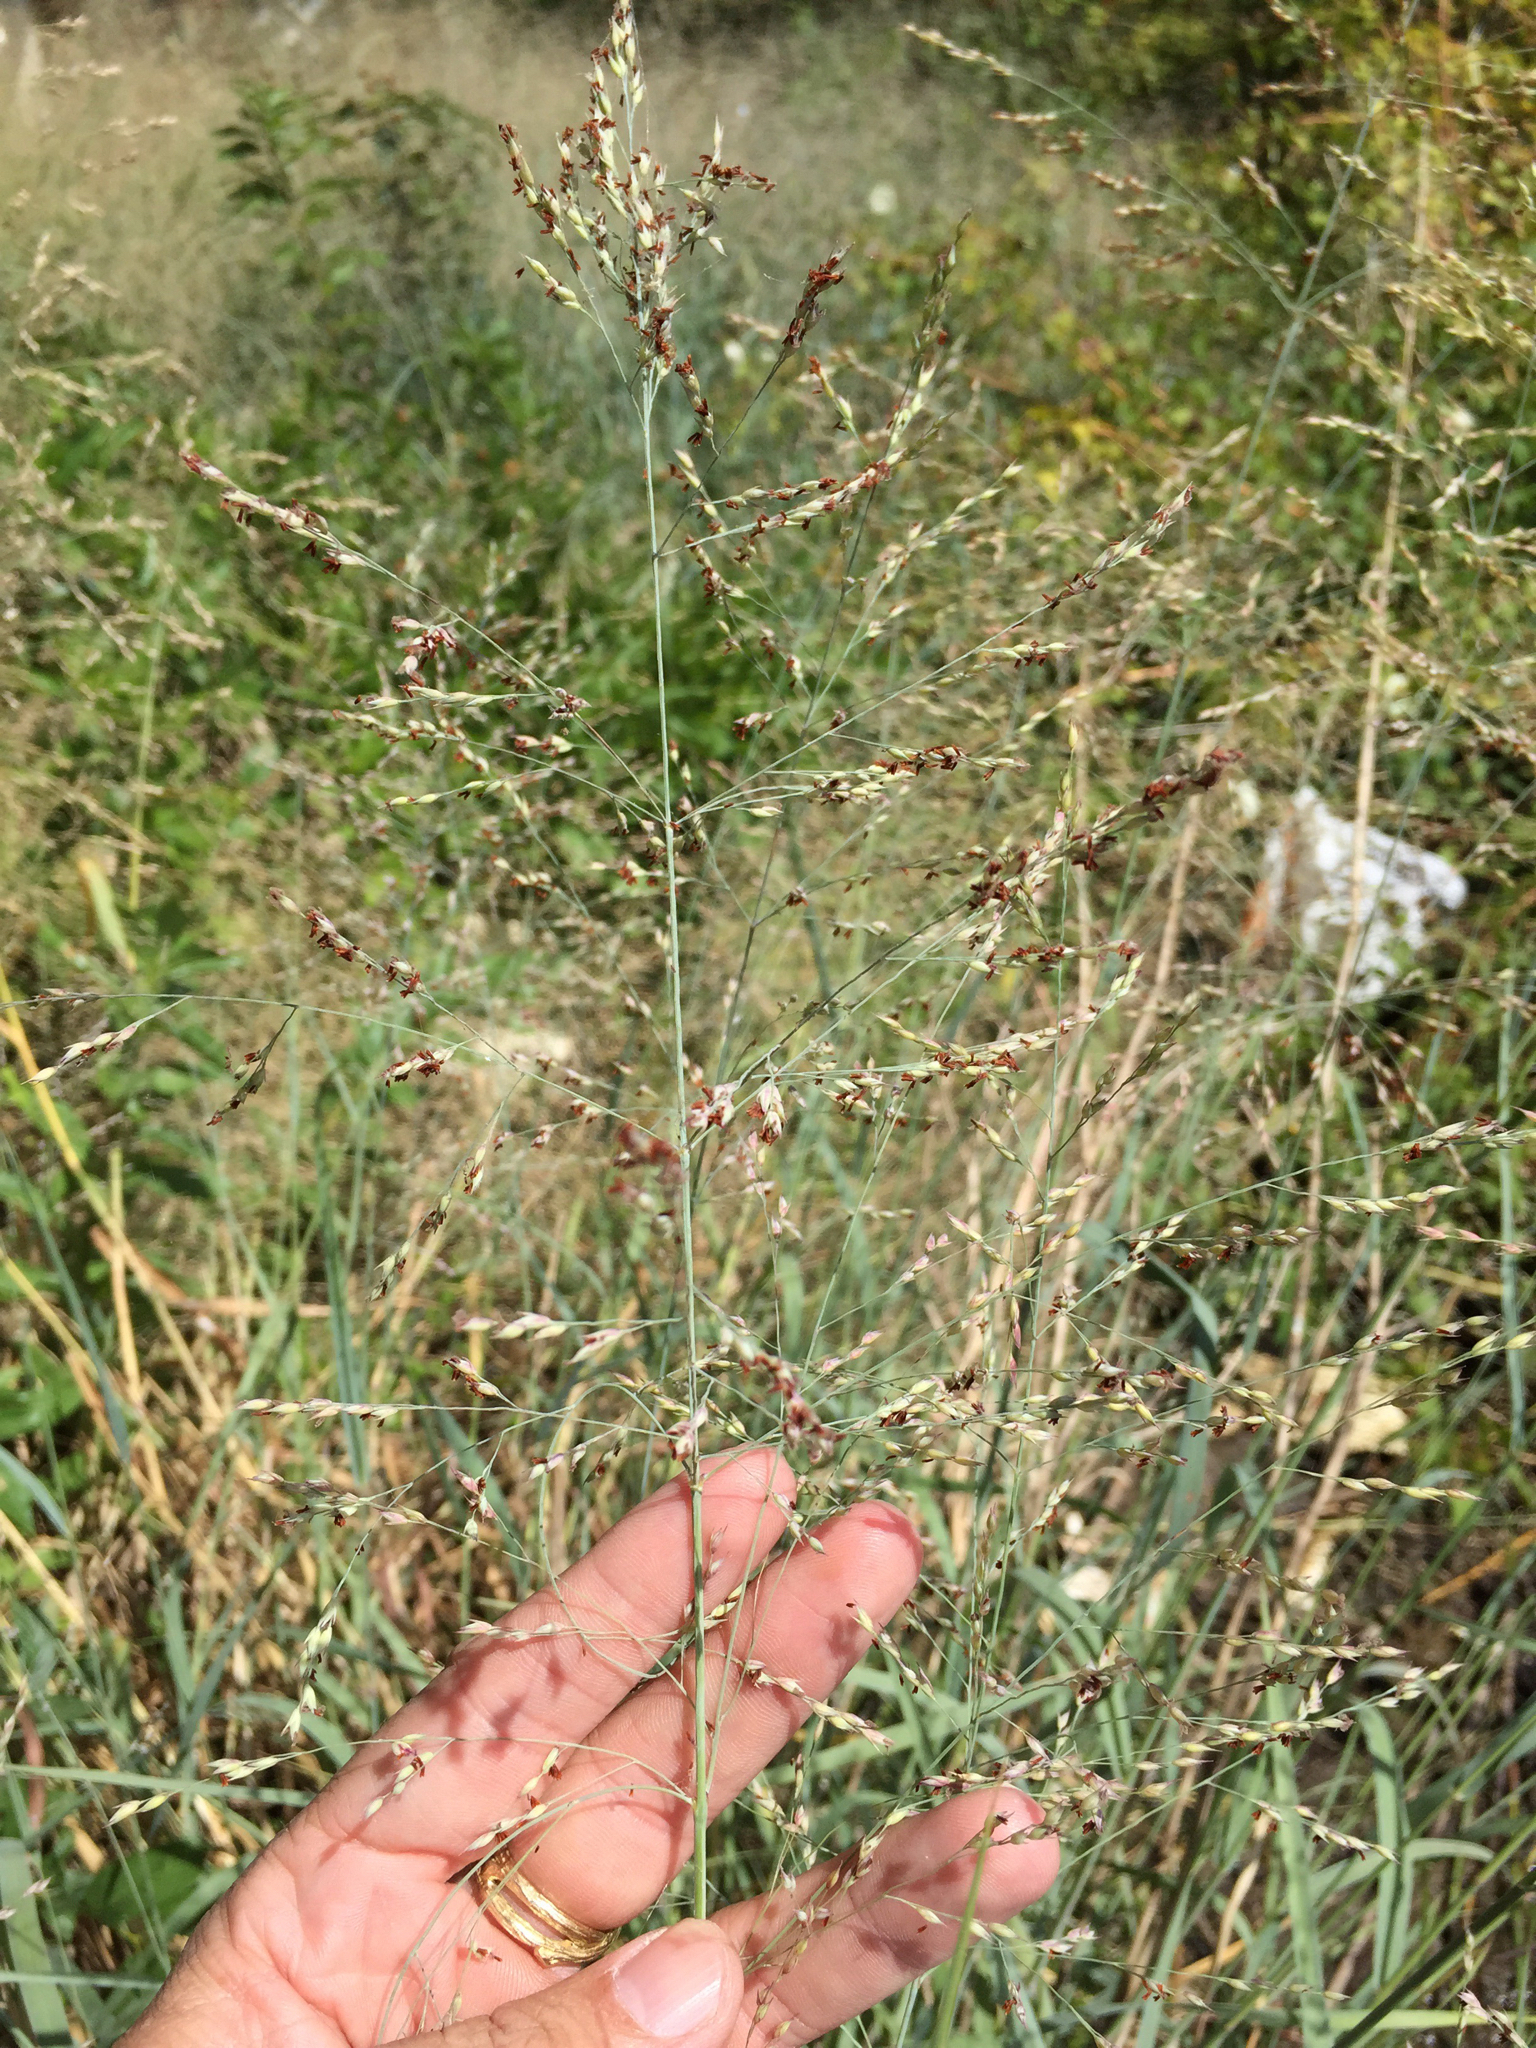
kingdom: Plantae
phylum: Tracheophyta
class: Liliopsida
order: Poales
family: Poaceae
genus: Panicum
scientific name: Panicum virgatum
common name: Switchgrass
